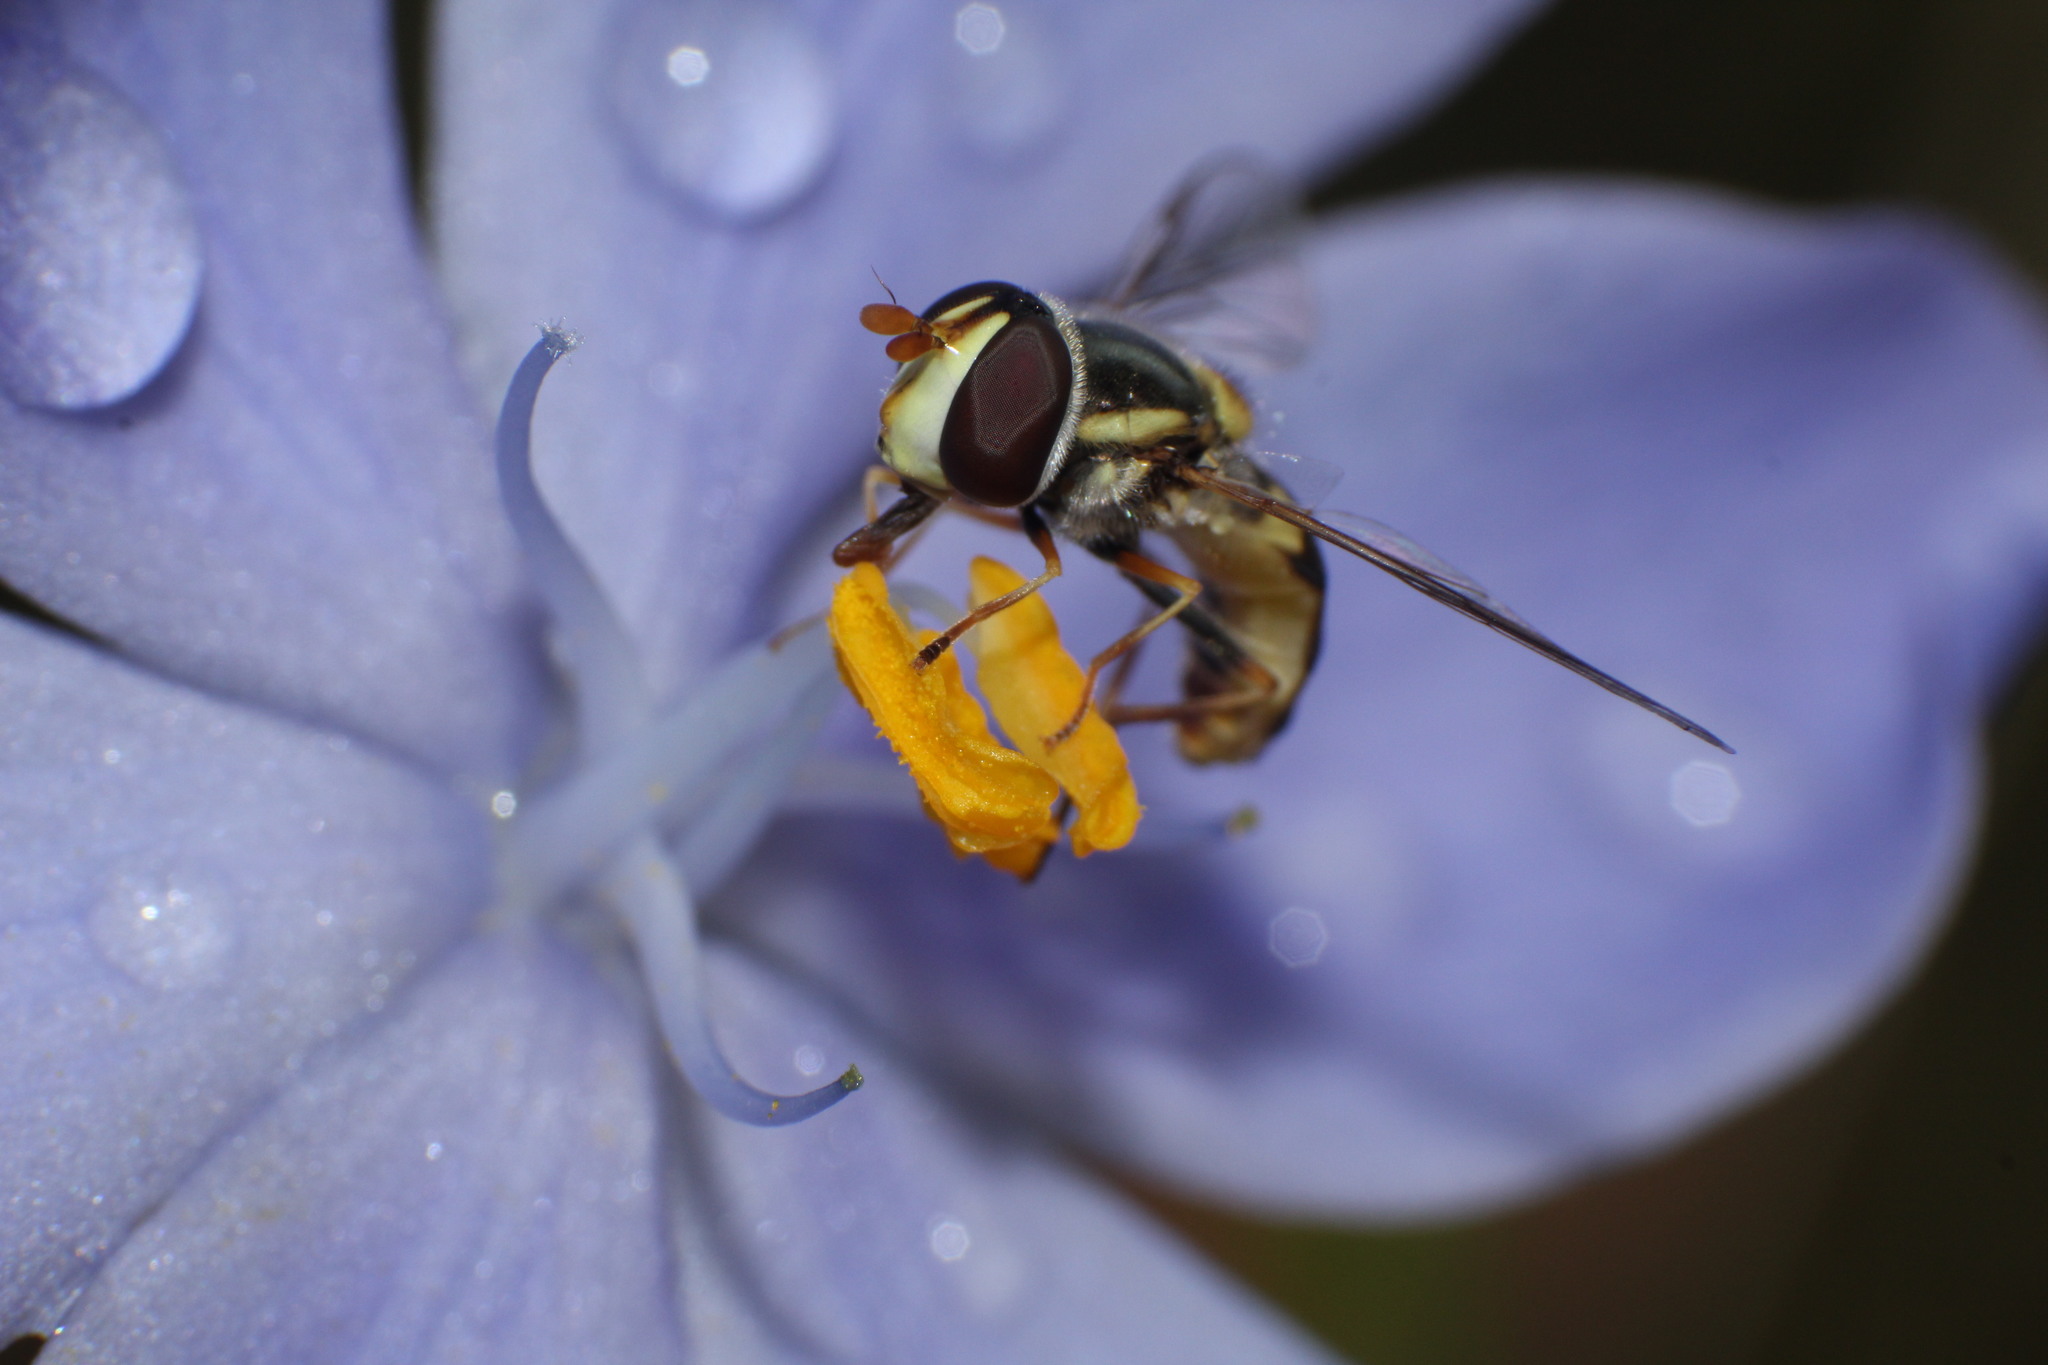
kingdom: Animalia
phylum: Arthropoda
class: Insecta
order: Diptera
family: Syrphidae
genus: Simosyrphus
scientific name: Simosyrphus grandicornis
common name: Hoverfly
